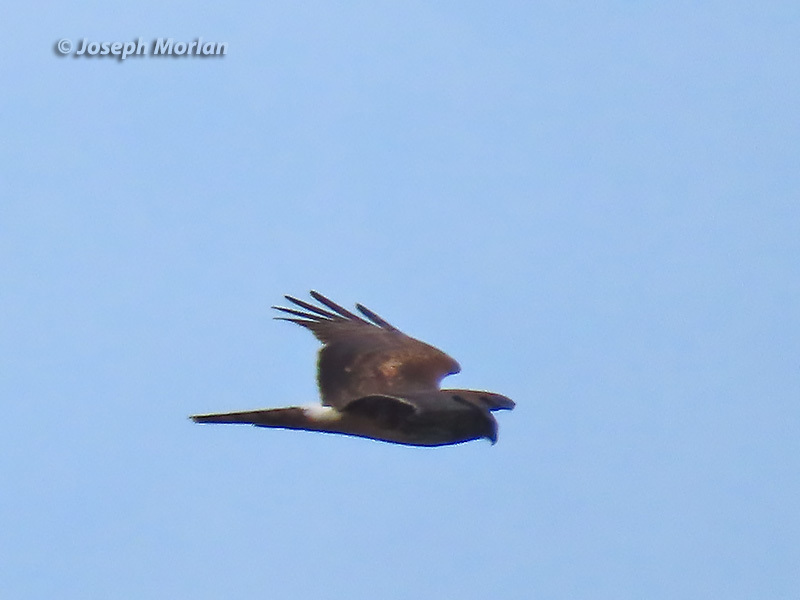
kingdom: Animalia
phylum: Chordata
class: Aves
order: Accipitriformes
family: Accipitridae
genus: Circus
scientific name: Circus cyaneus
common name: Hen harrier
